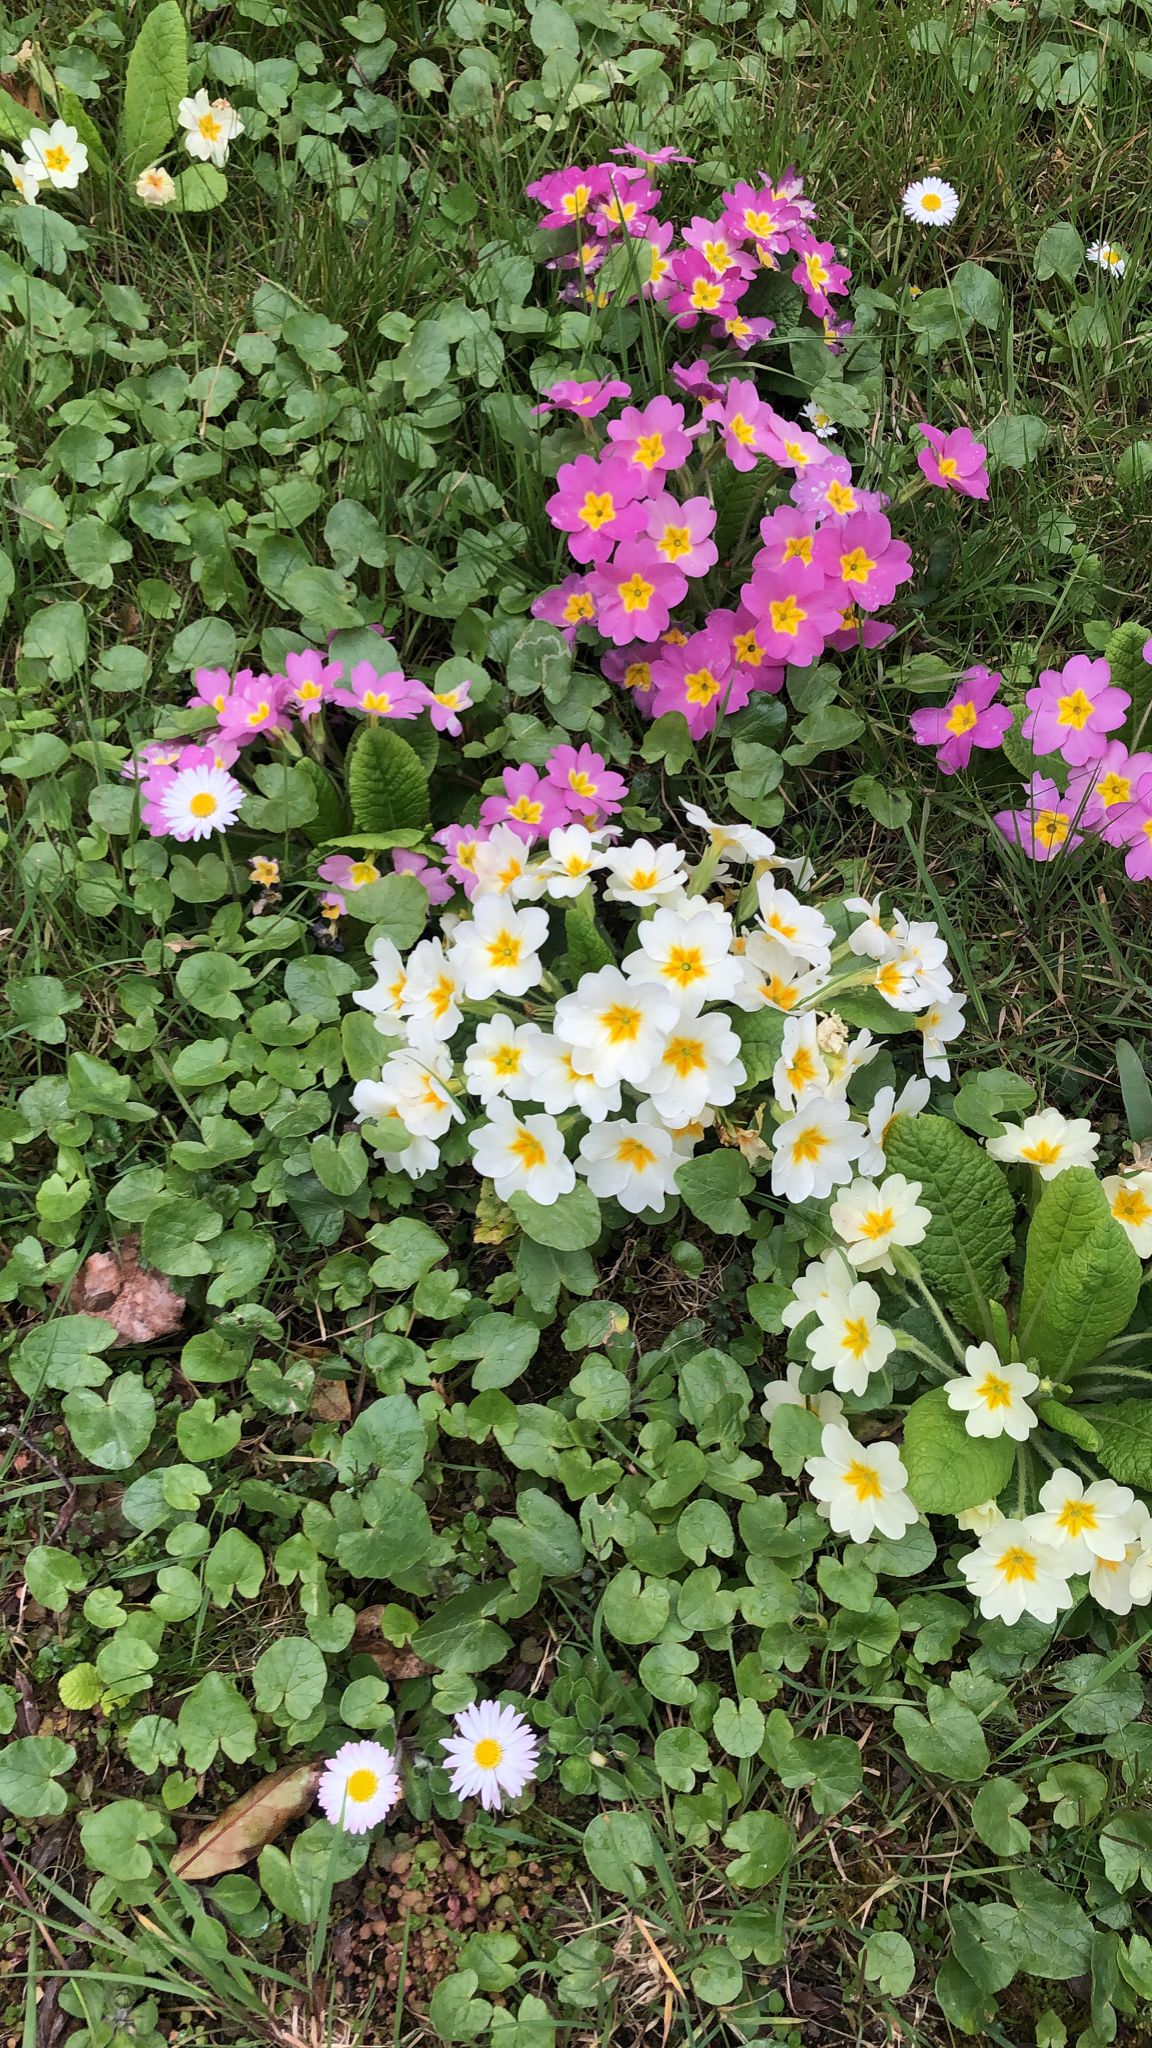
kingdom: Plantae
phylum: Tracheophyta
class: Magnoliopsida
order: Ericales
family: Primulaceae
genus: Primula
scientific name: Primula vulgaris
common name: Primrose
